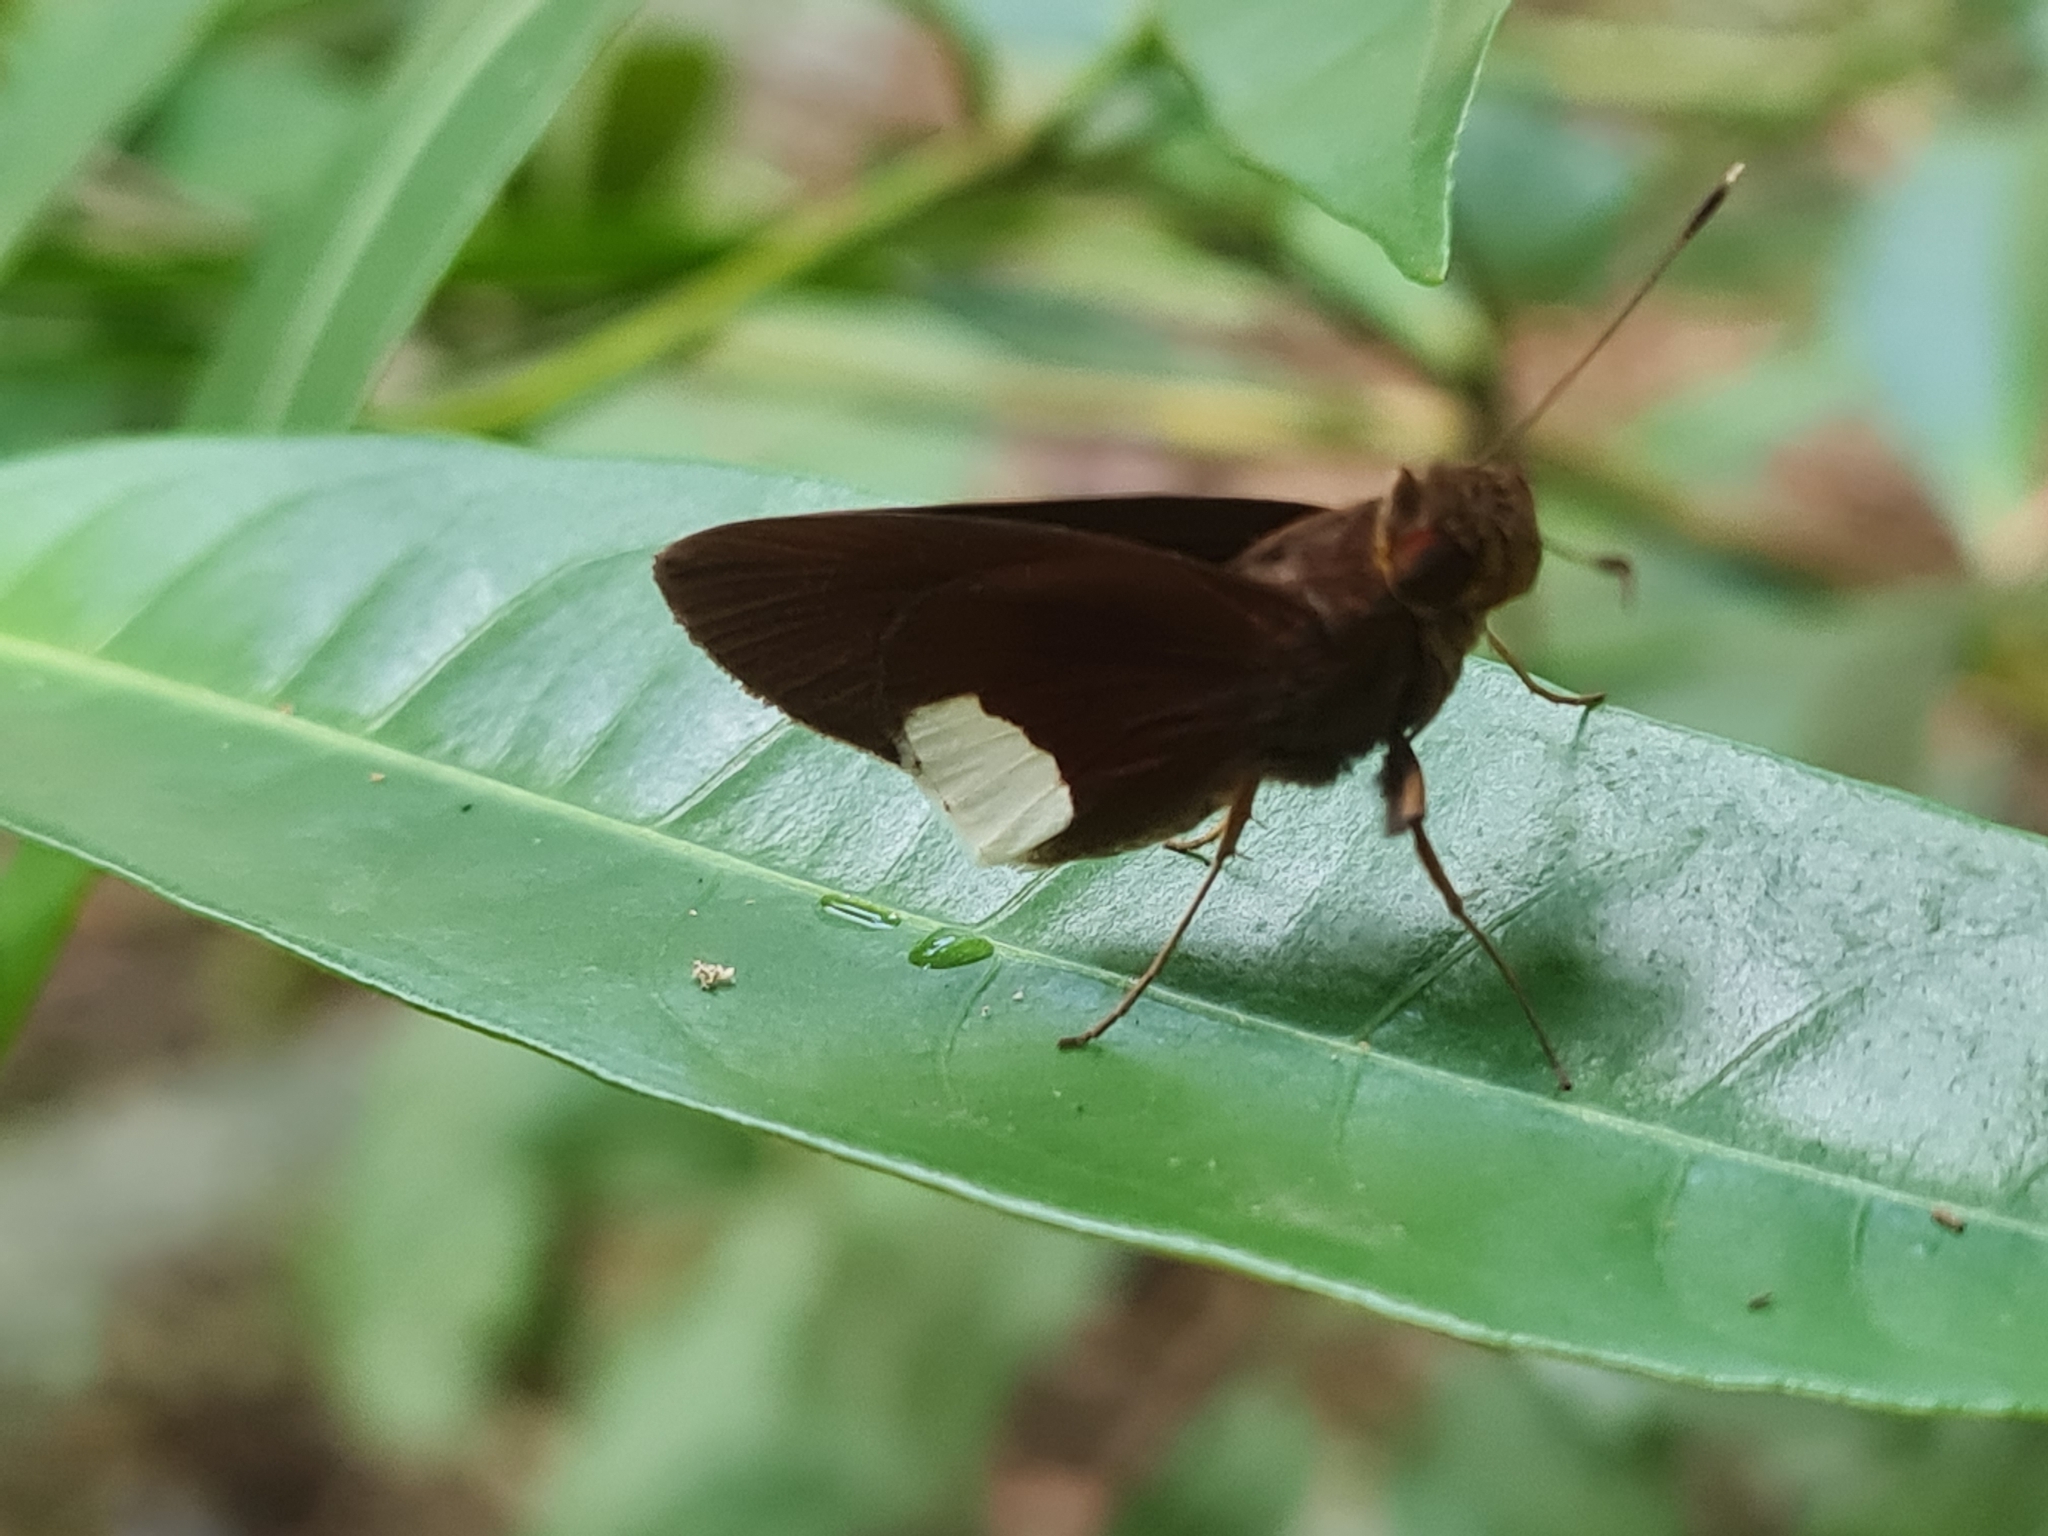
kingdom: Animalia
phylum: Arthropoda
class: Insecta
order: Lepidoptera
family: Hesperiidae
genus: Cobalus
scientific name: Cobalus virbius
